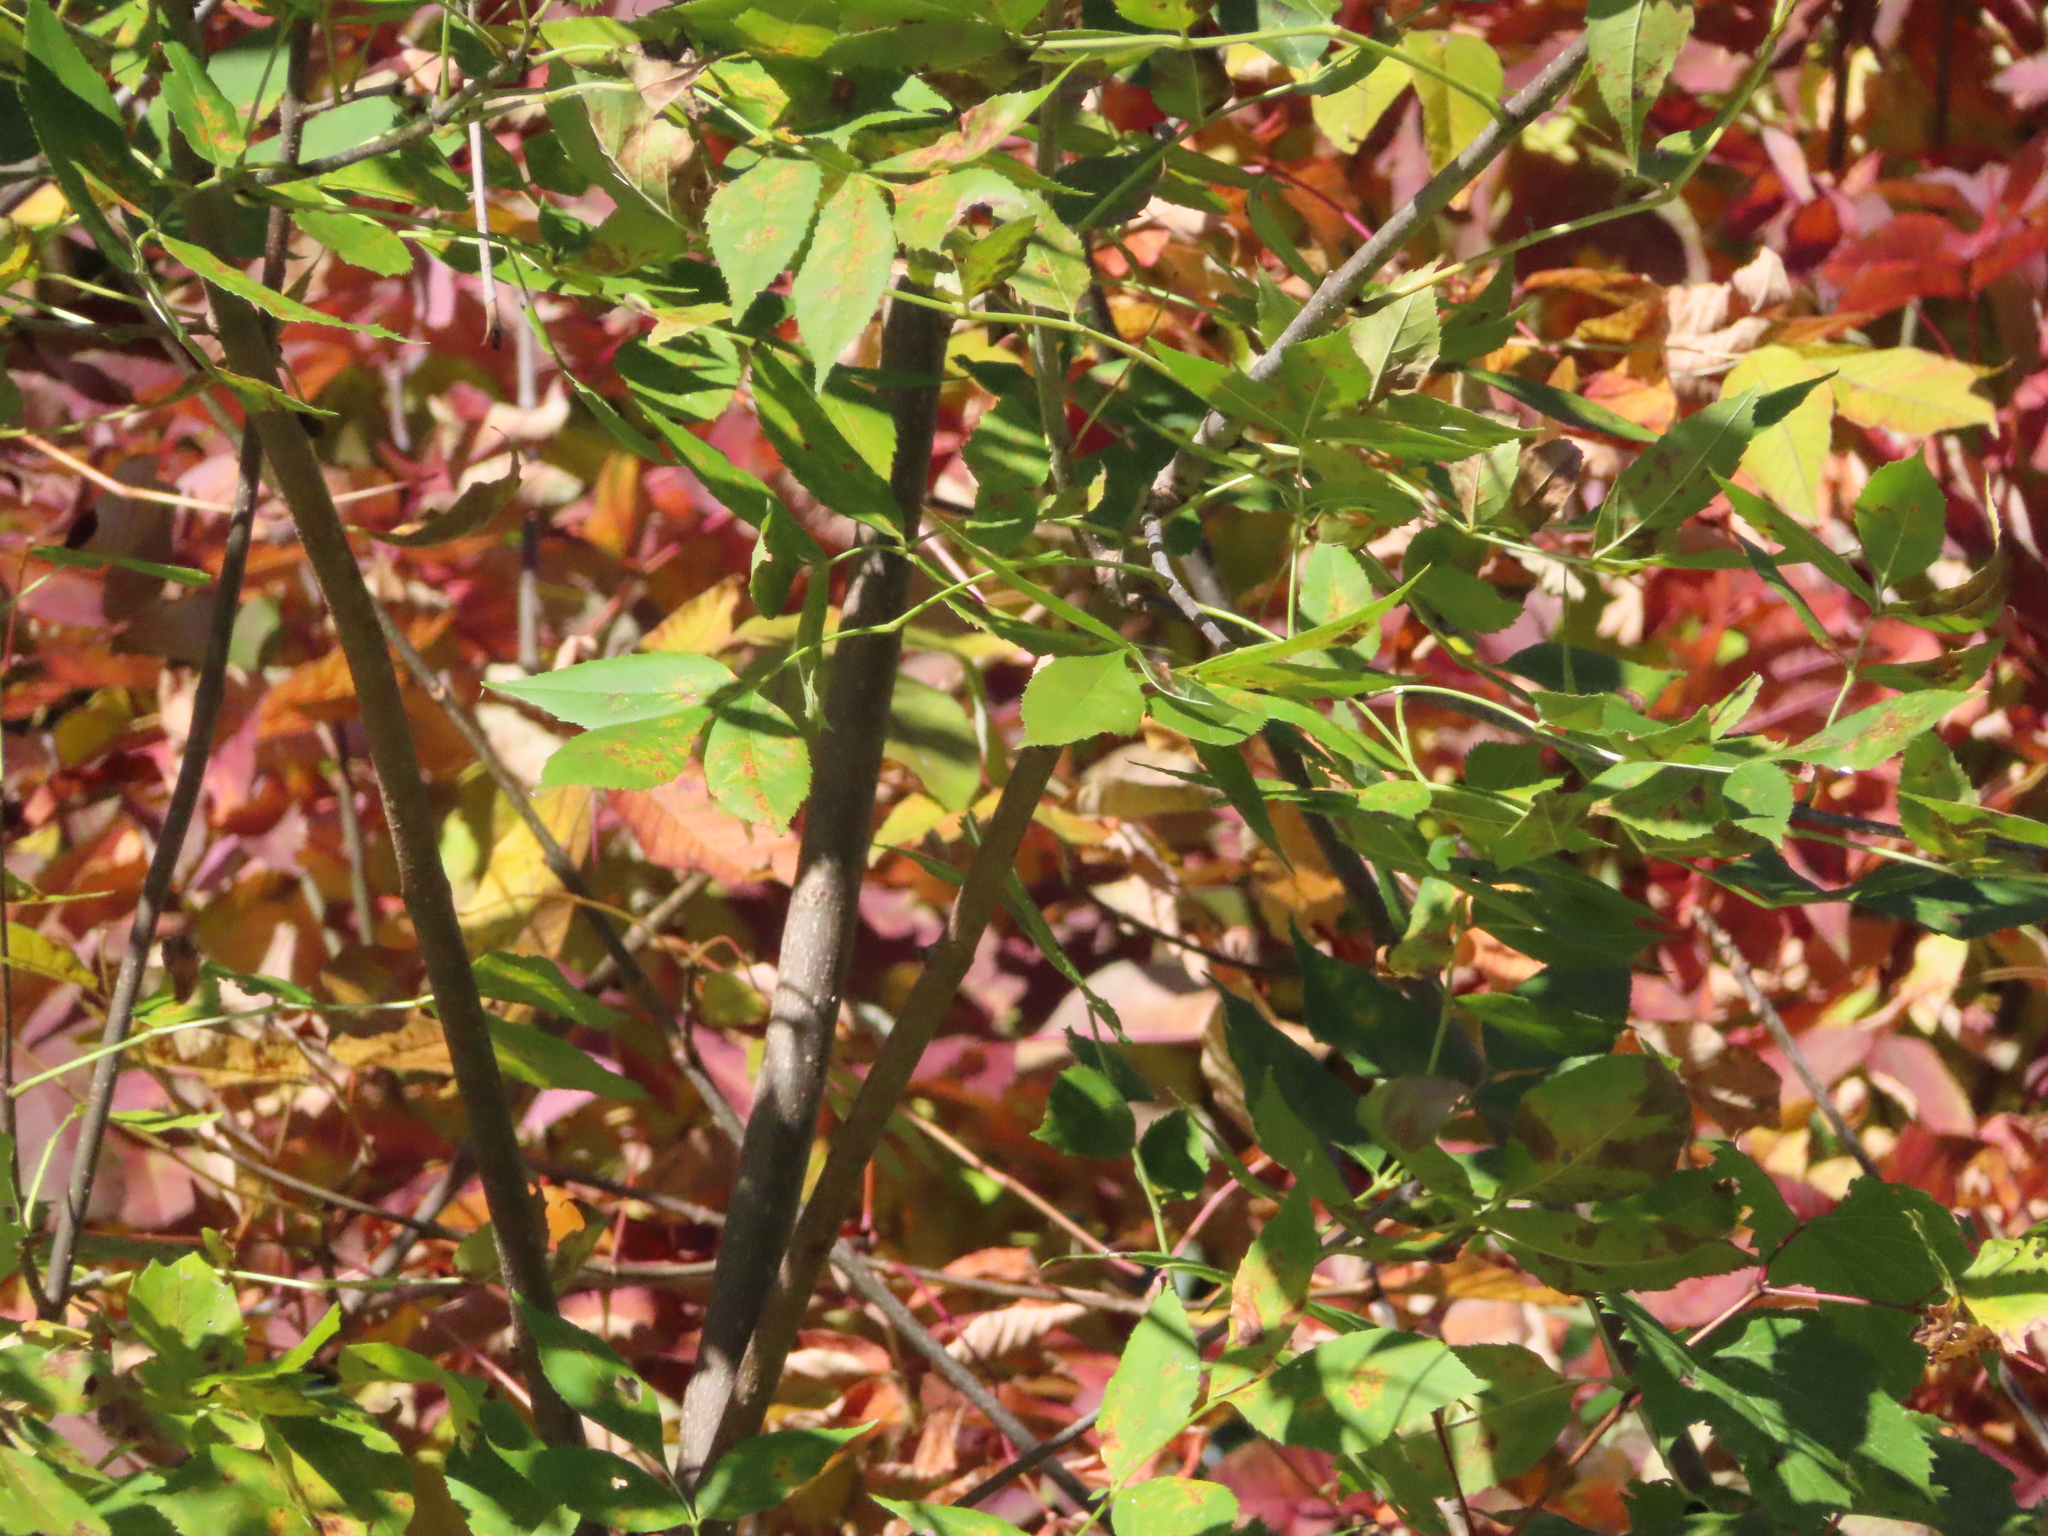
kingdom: Plantae
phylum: Tracheophyta
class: Magnoliopsida
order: Lamiales
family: Oleaceae
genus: Fraxinus
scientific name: Fraxinus pennsylvanica
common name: Green ash
